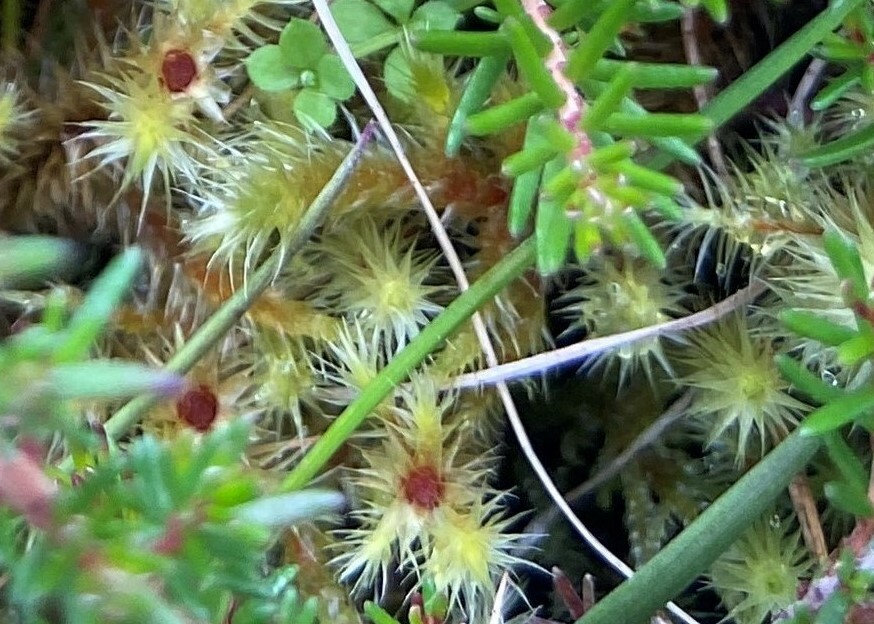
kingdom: Plantae
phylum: Bryophyta
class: Bryopsida
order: Bartramiales
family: Bartramiaceae
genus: Breutelia
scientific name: Breutelia chrysocoma
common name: Bottle-brush moss
